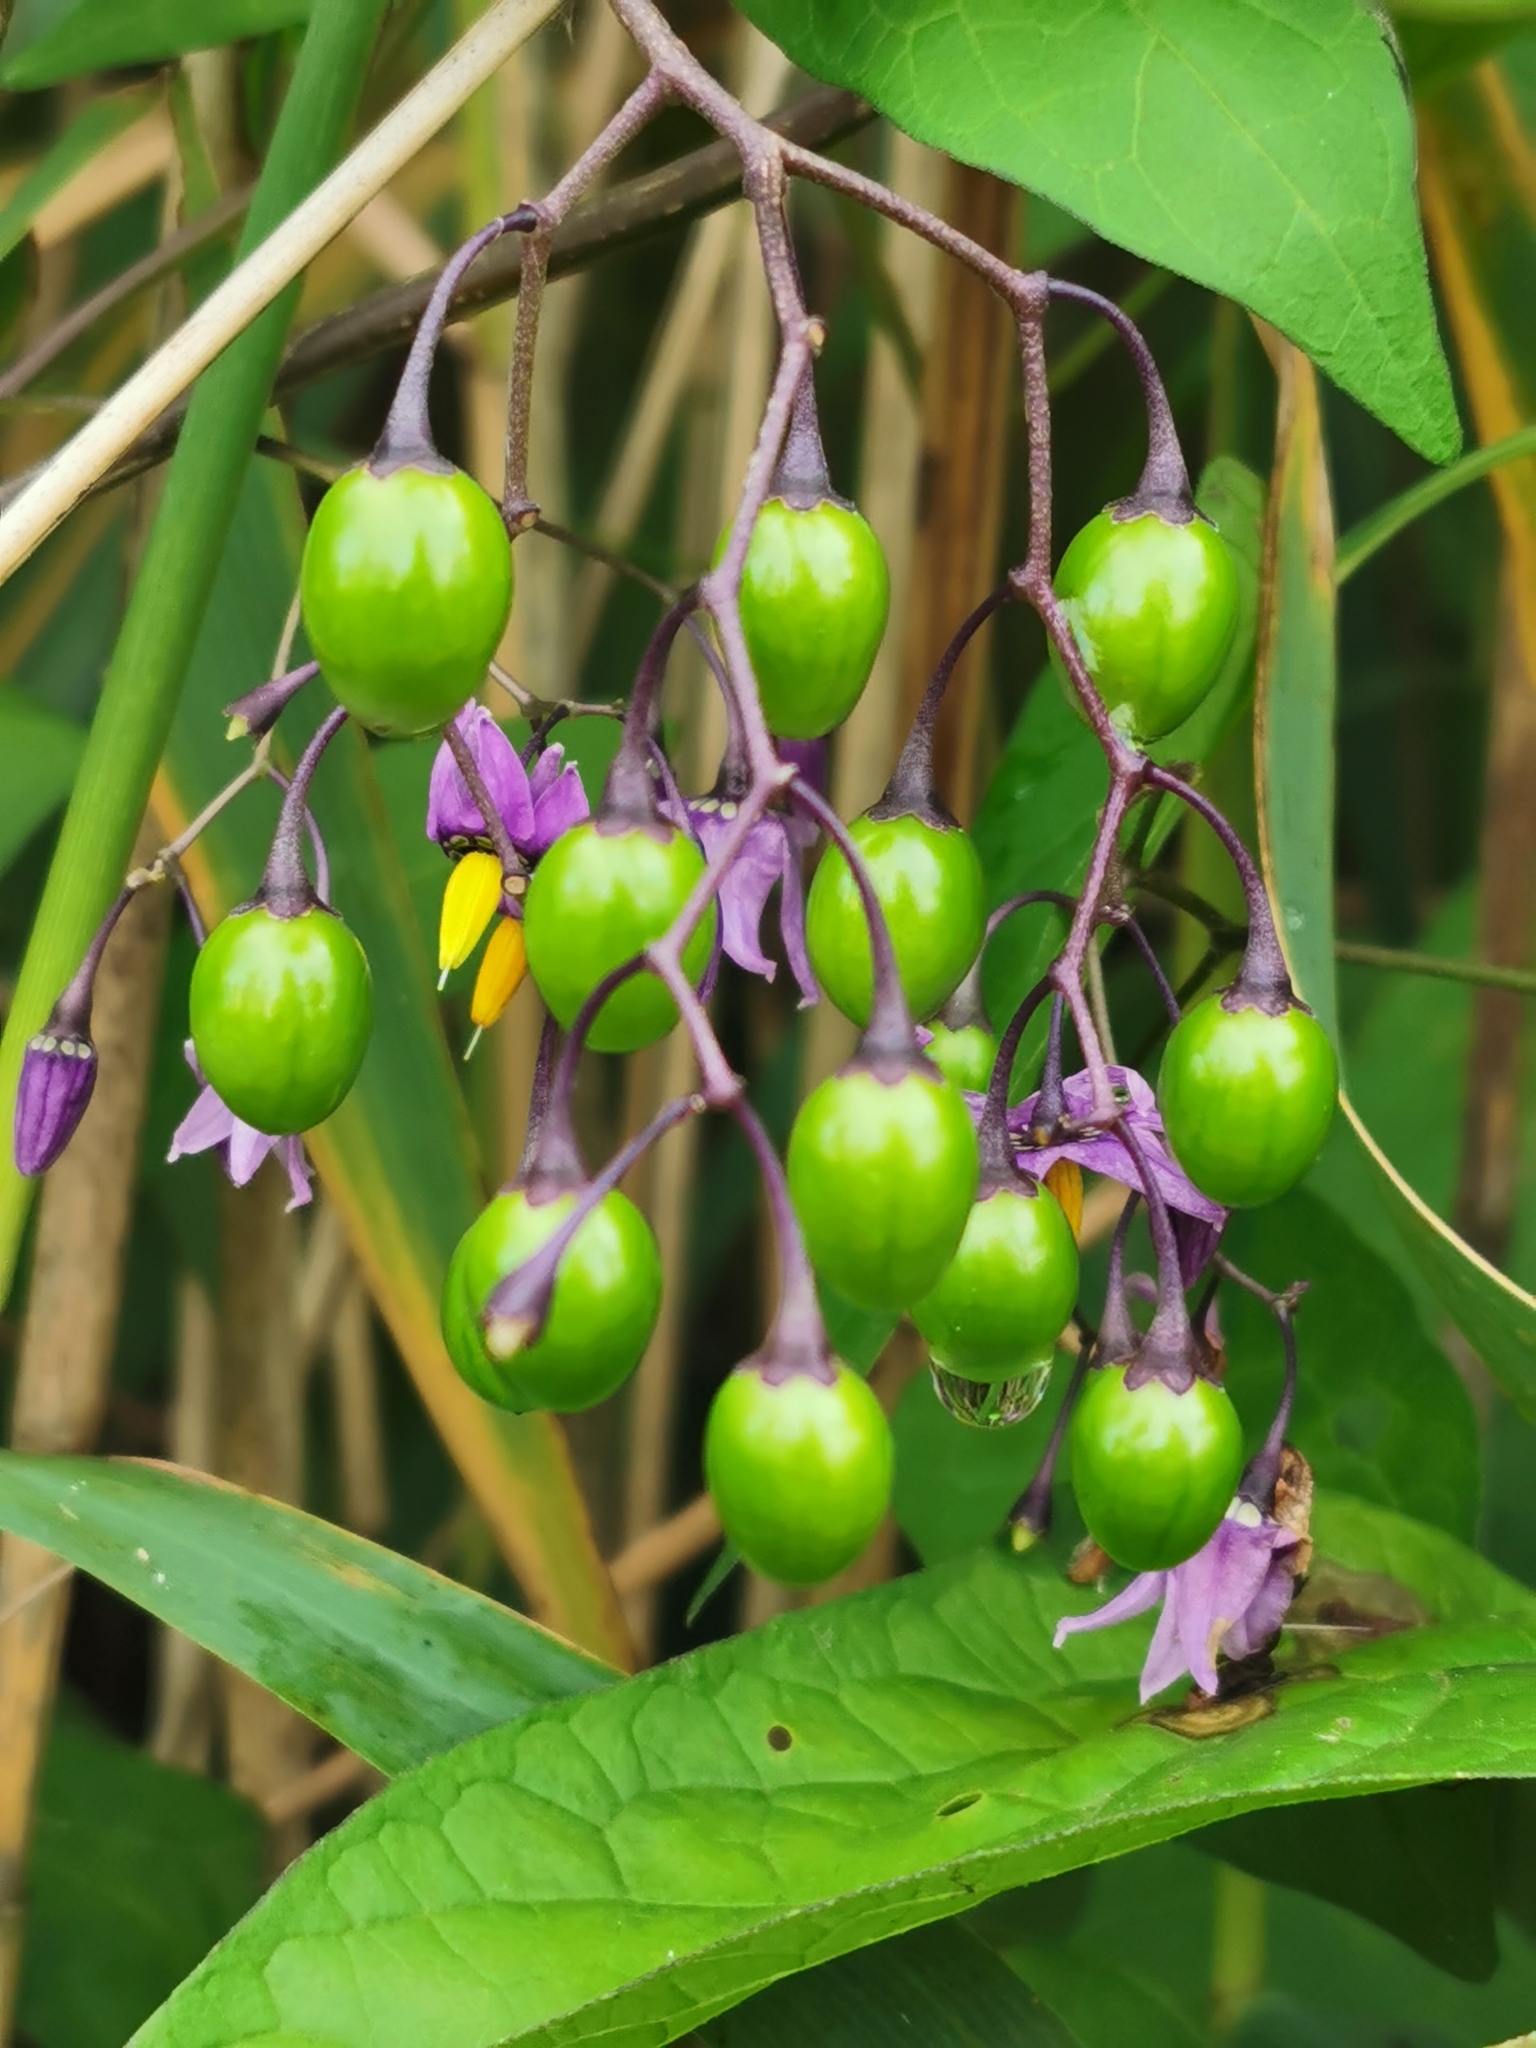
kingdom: Plantae
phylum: Tracheophyta
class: Magnoliopsida
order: Solanales
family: Solanaceae
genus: Solanum
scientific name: Solanum dulcamara
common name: Climbing nightshade
